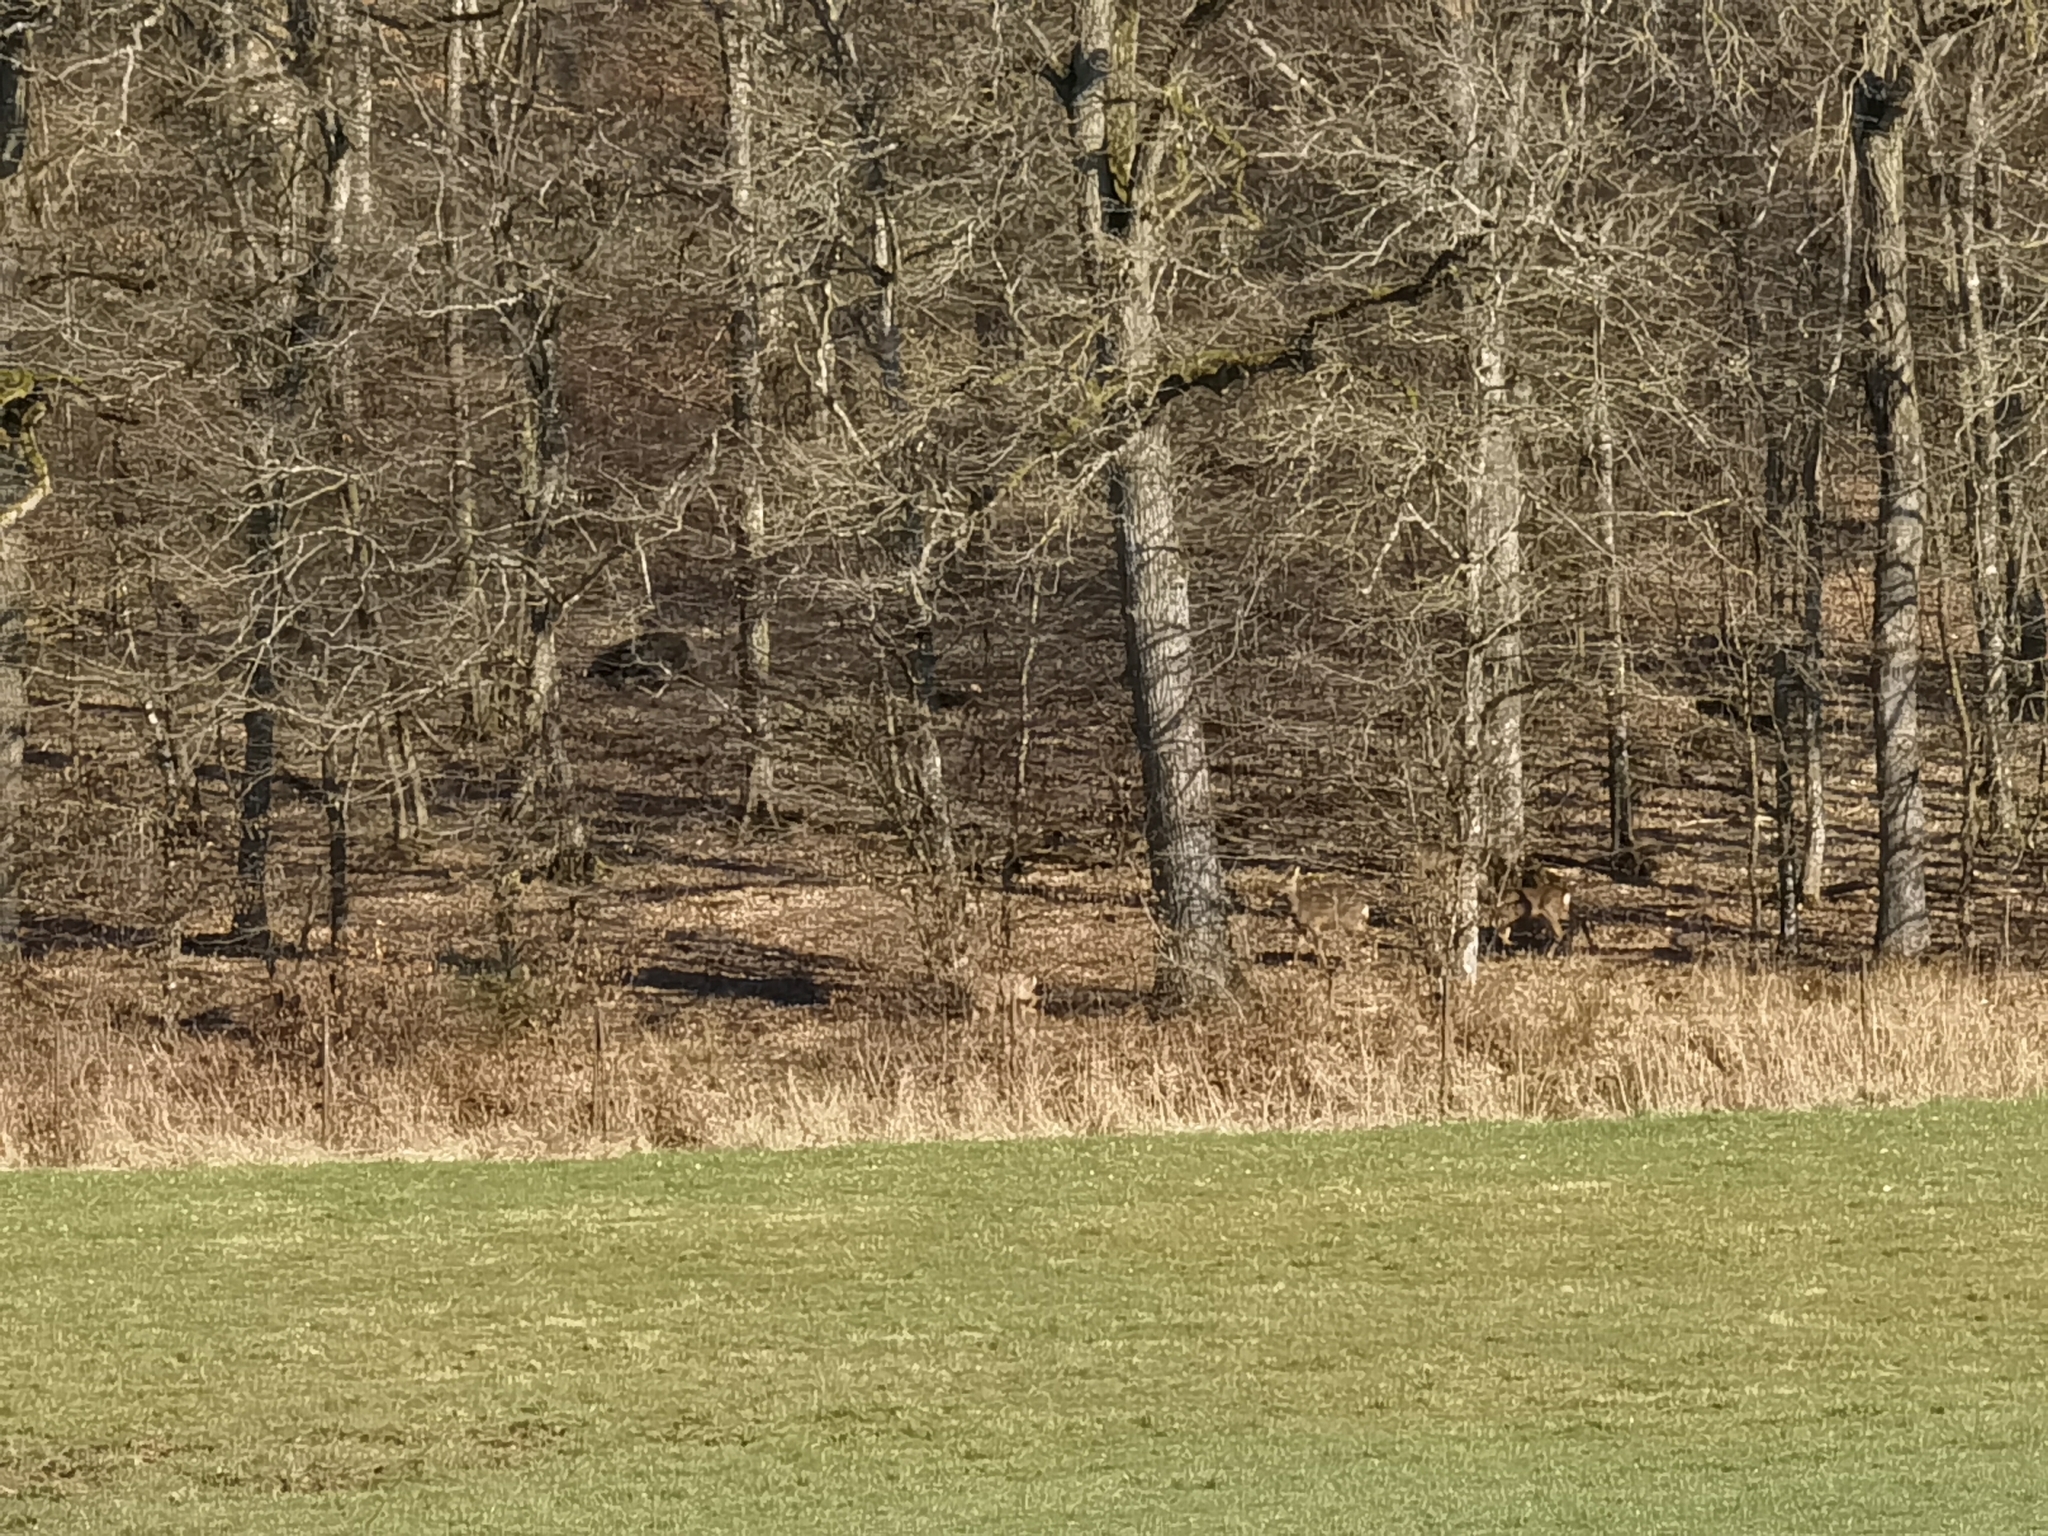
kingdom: Animalia
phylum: Chordata
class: Mammalia
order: Artiodactyla
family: Cervidae
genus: Capreolus
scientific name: Capreolus capreolus
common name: Western roe deer
